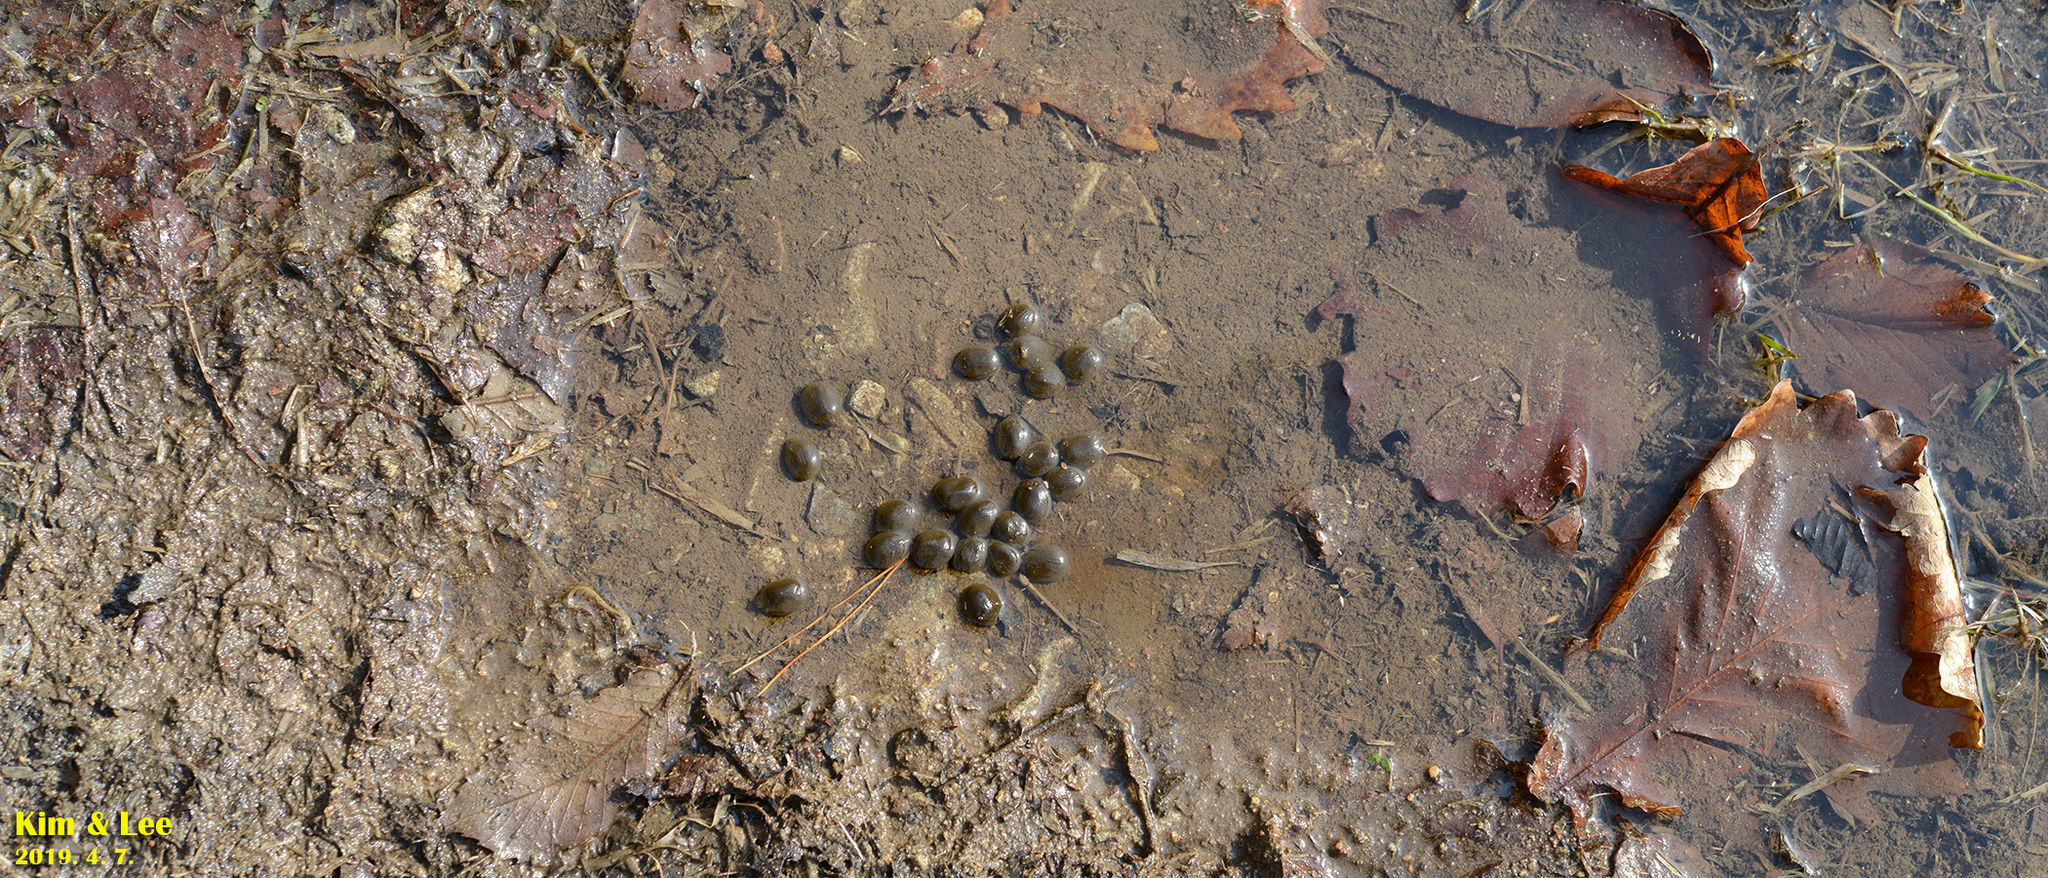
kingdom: Animalia
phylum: Chordata
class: Mammalia
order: Artiodactyla
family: Cervidae
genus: Hydropotes
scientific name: Hydropotes inermis
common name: Chinese water deer
